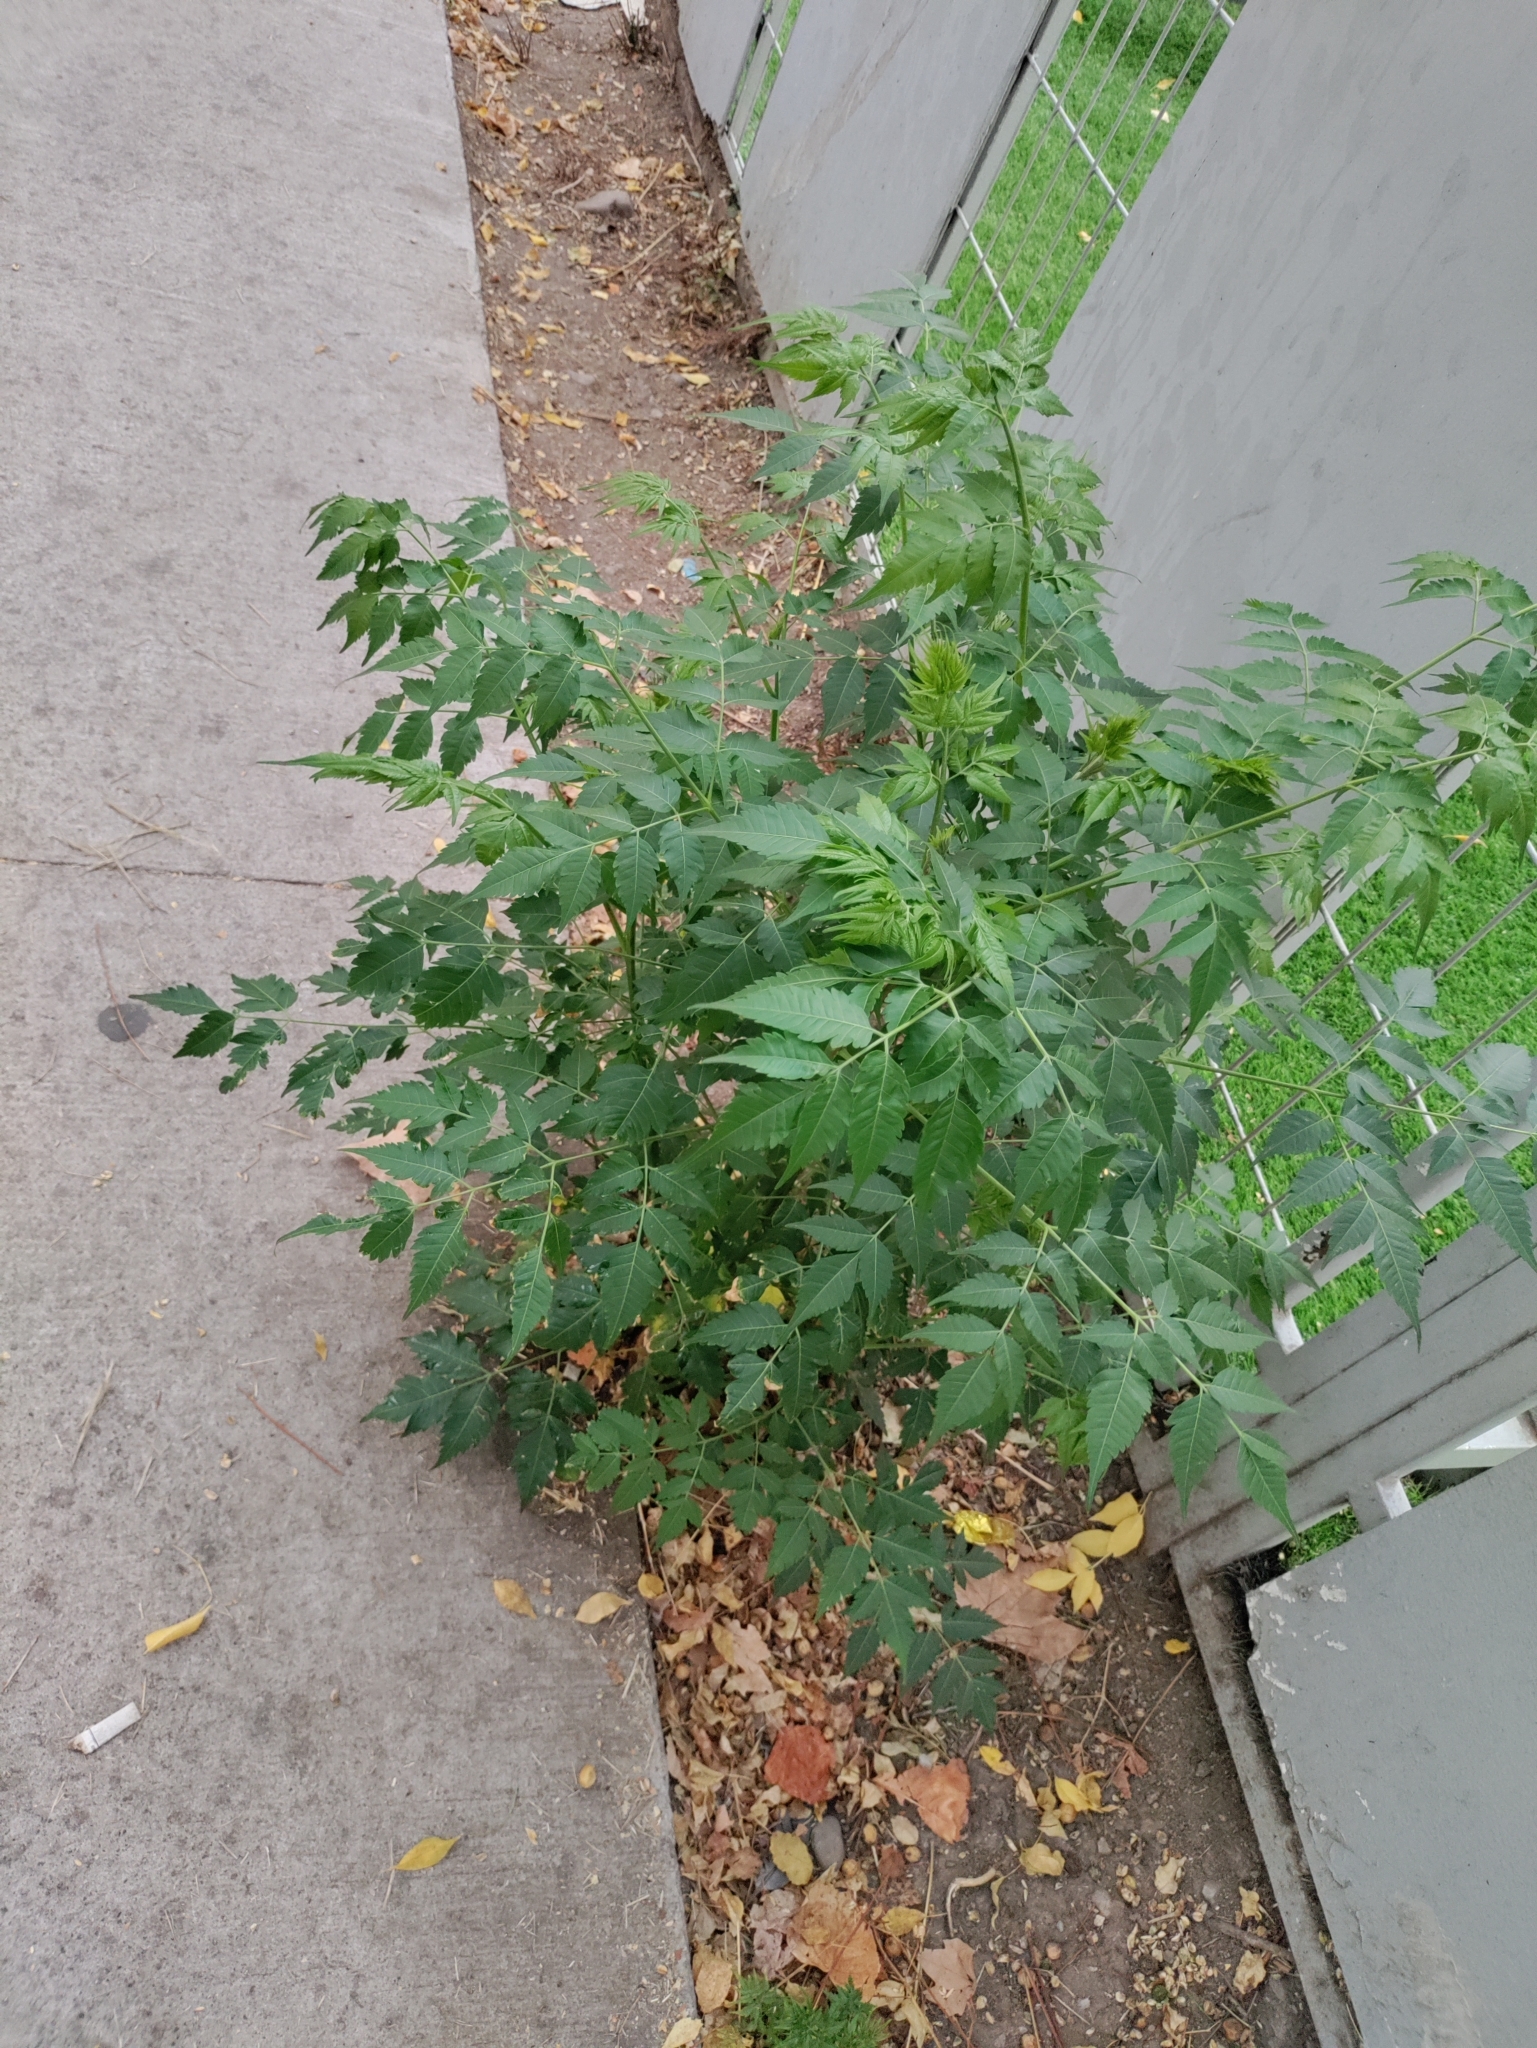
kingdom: Plantae
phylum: Tracheophyta
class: Magnoliopsida
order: Sapindales
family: Meliaceae
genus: Melia
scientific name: Melia azedarach
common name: Chinaberrytree
